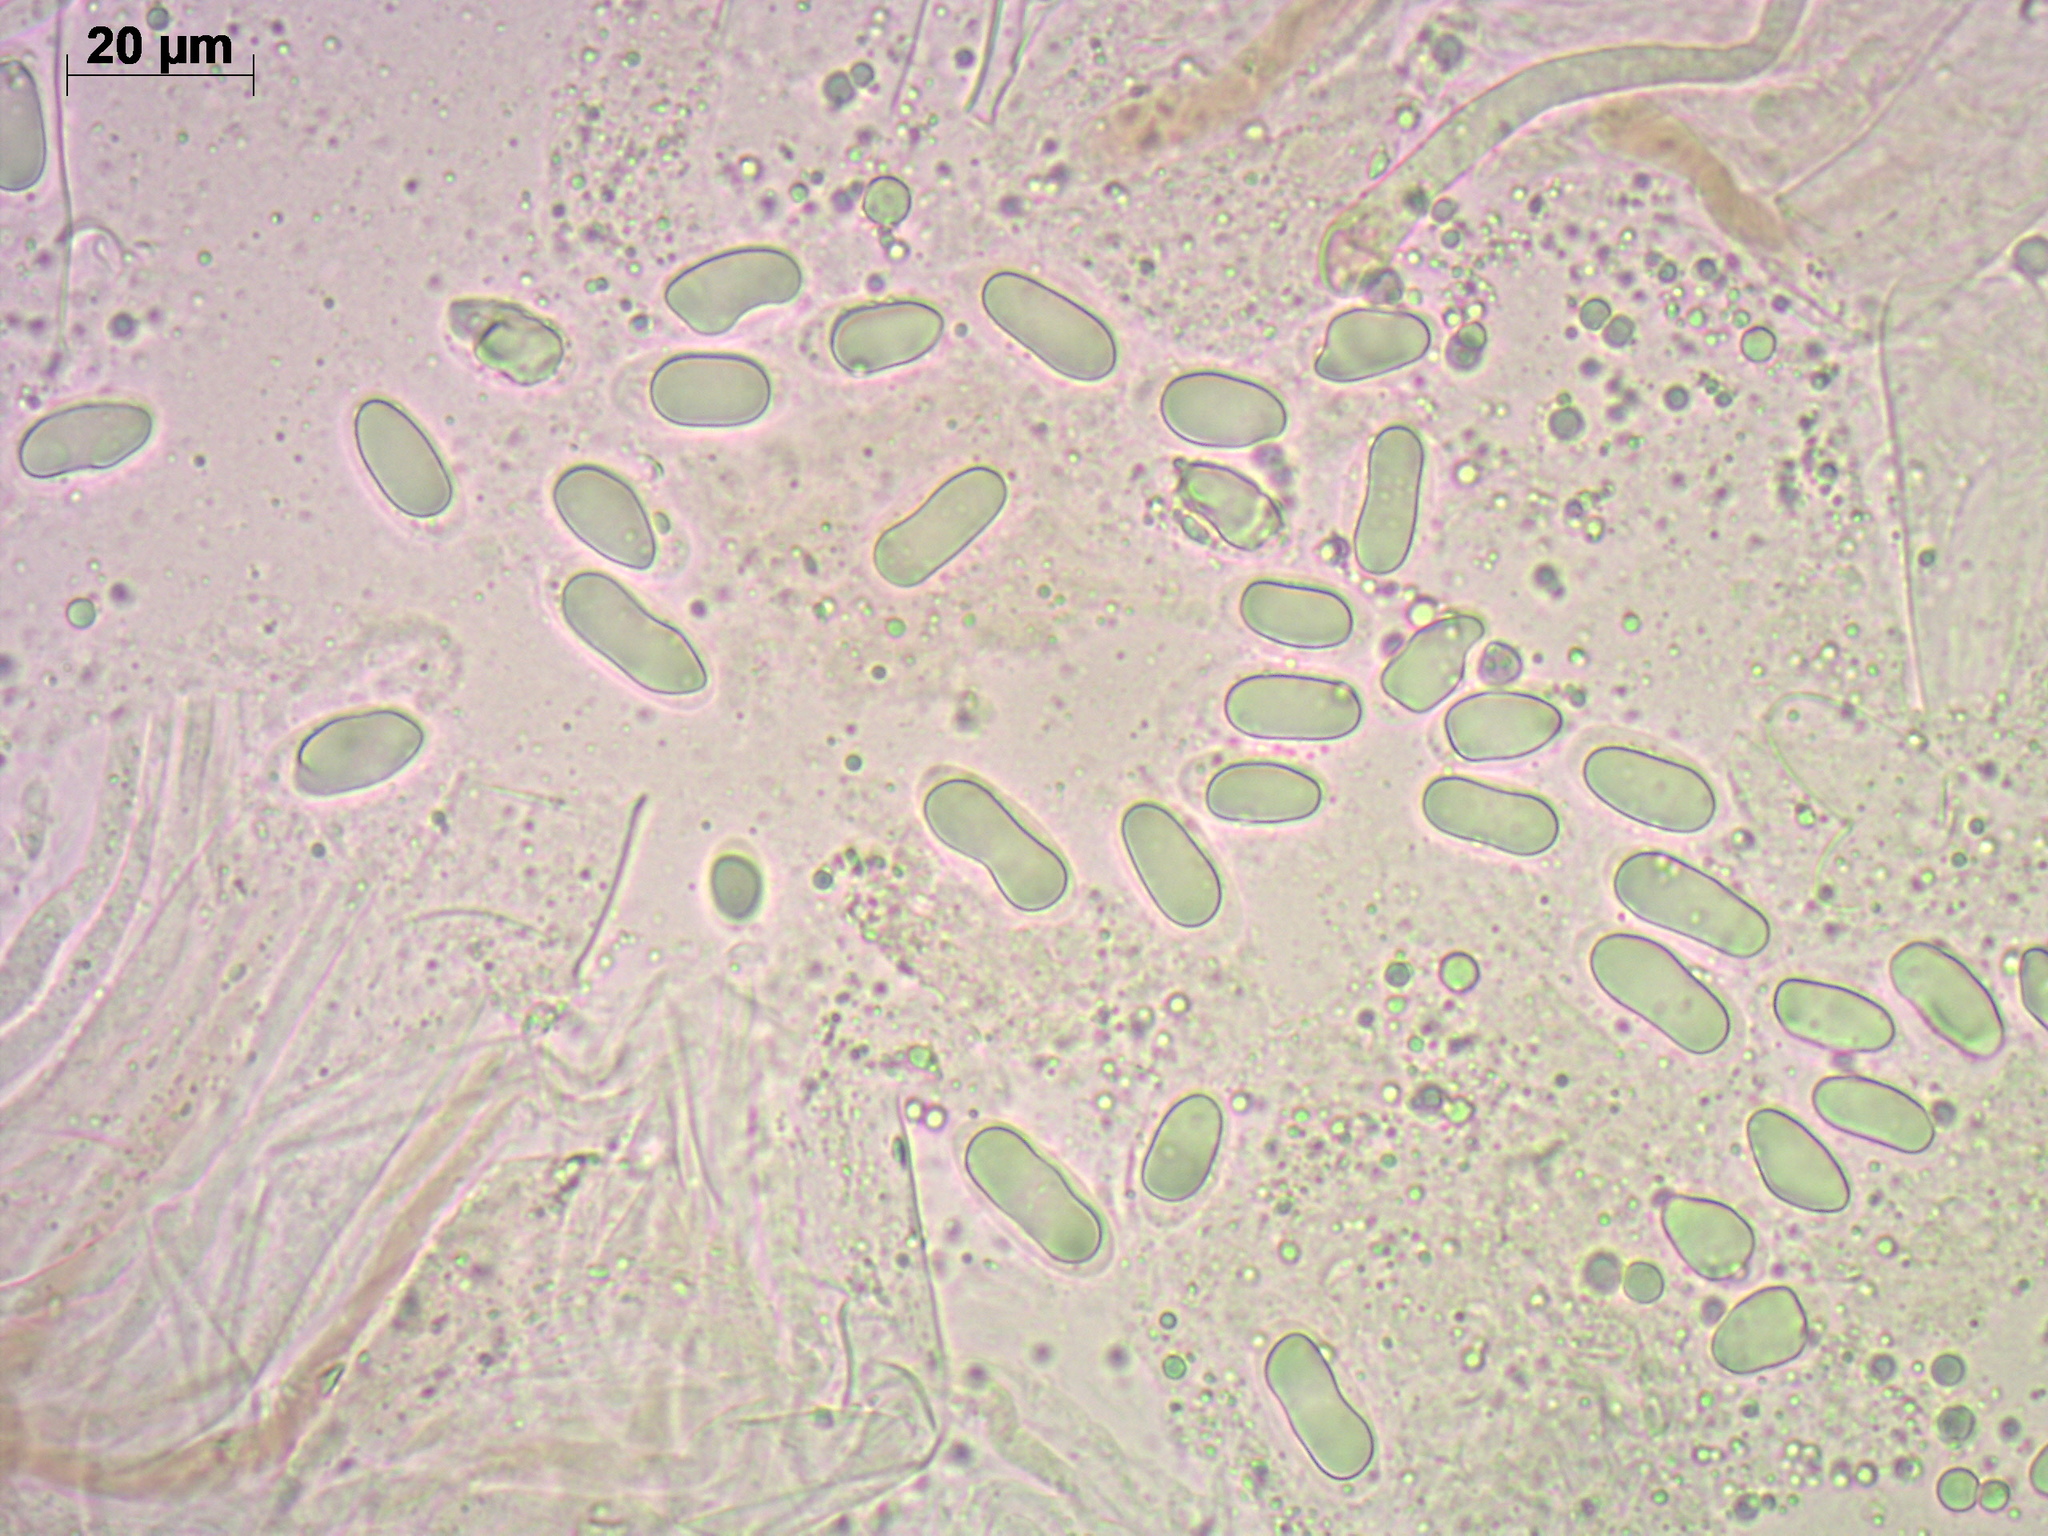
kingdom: Fungi
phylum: Ascomycota
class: Pezizomycetes
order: Pezizales
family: Pezizaceae
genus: Pachyella
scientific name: Pachyella clypeata
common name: Copper penny fungus
